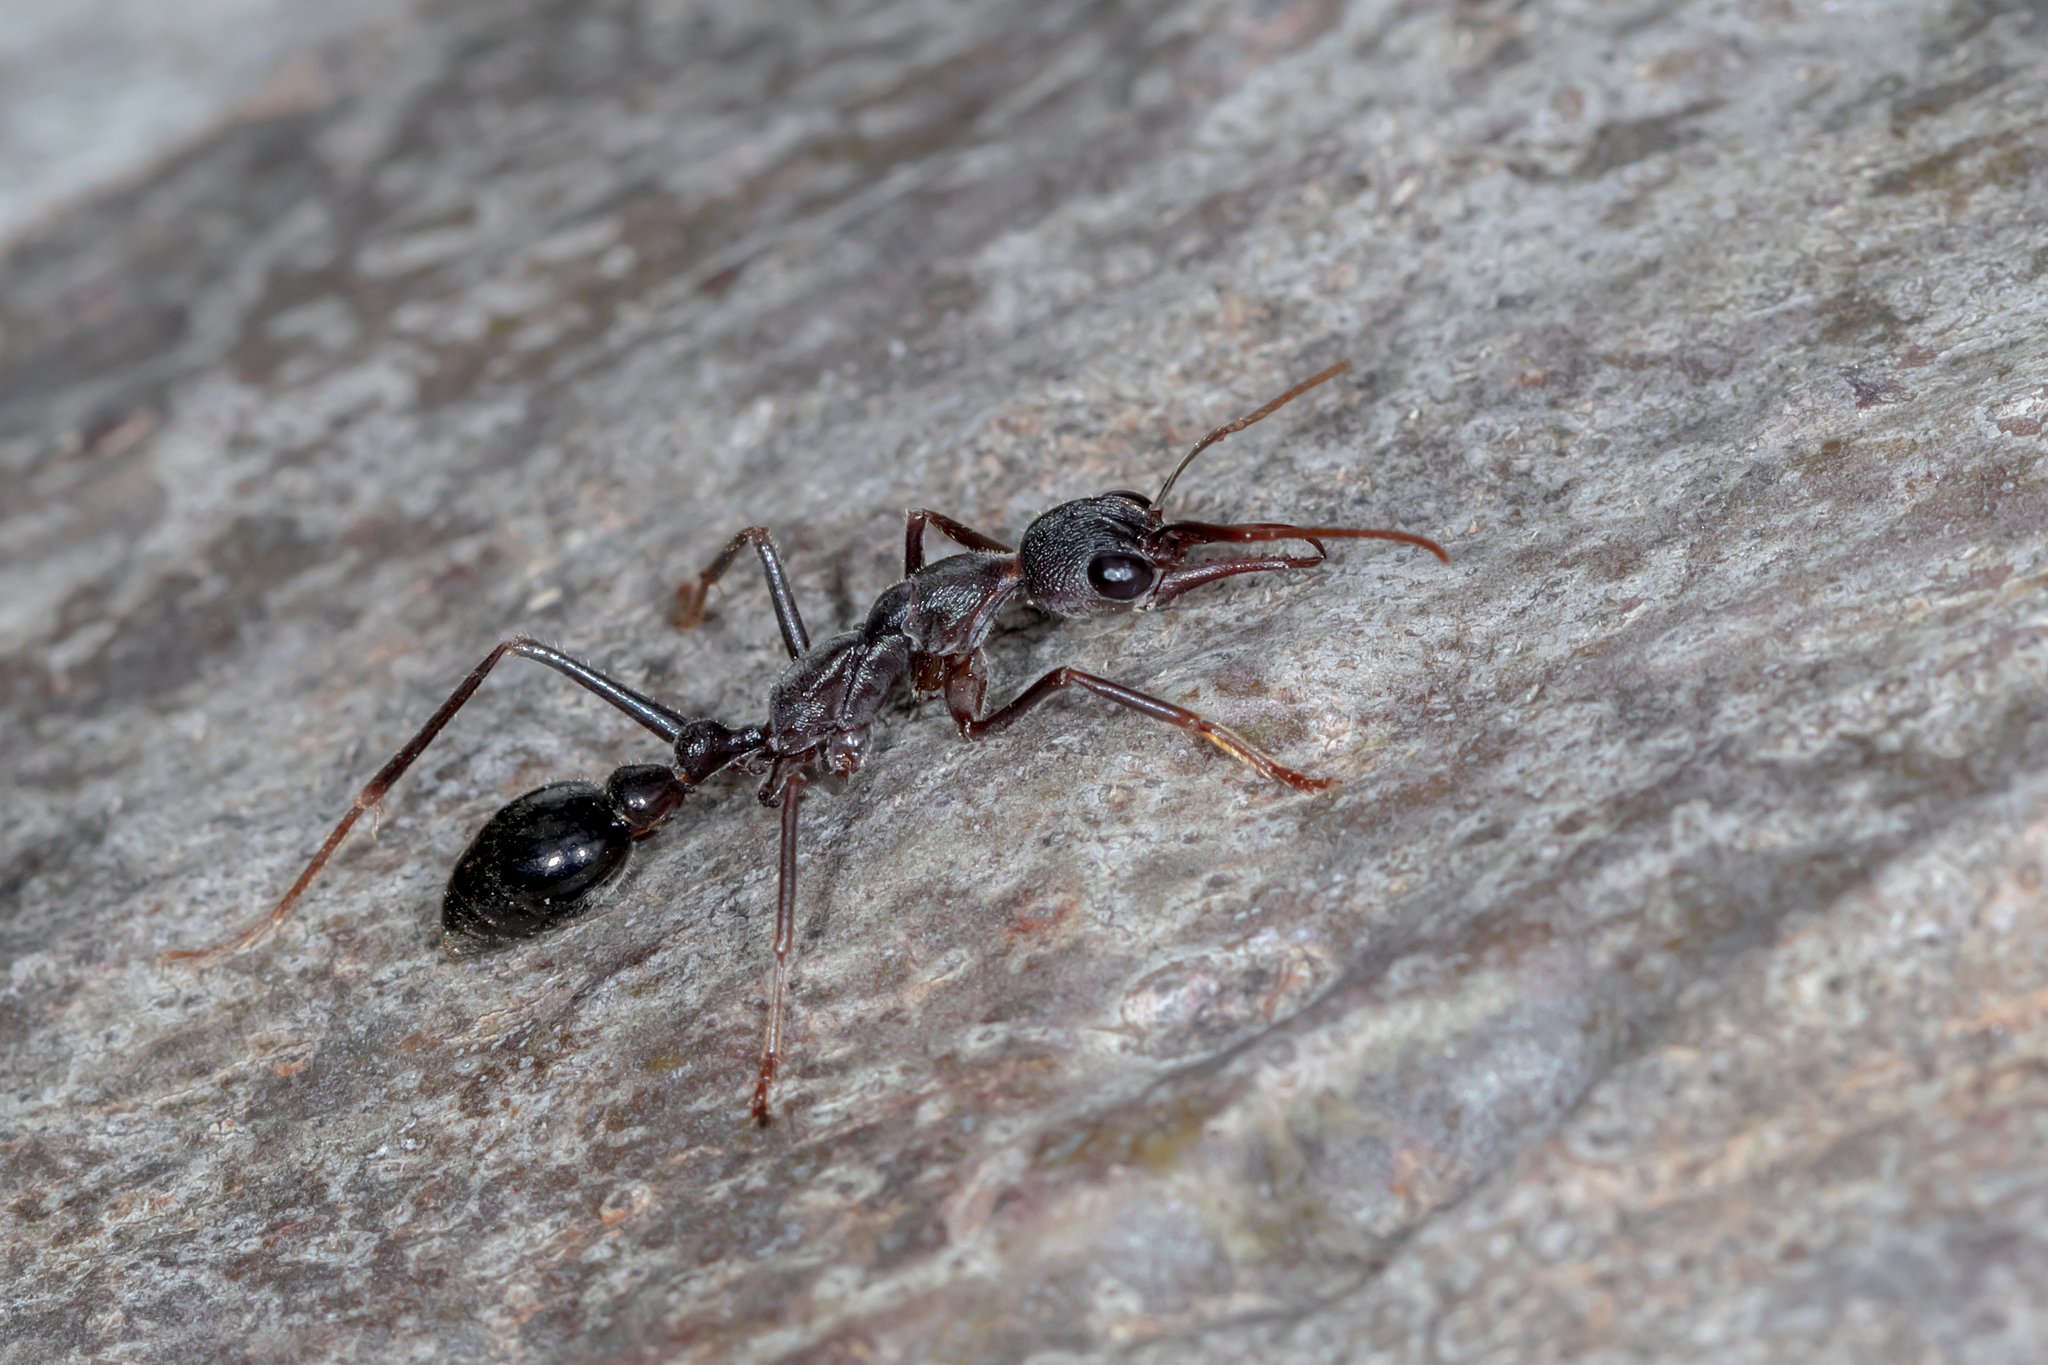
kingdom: Animalia
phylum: Arthropoda
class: Insecta
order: Hymenoptera
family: Formicidae
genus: Myrmecia
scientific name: Myrmecia pyriformis
